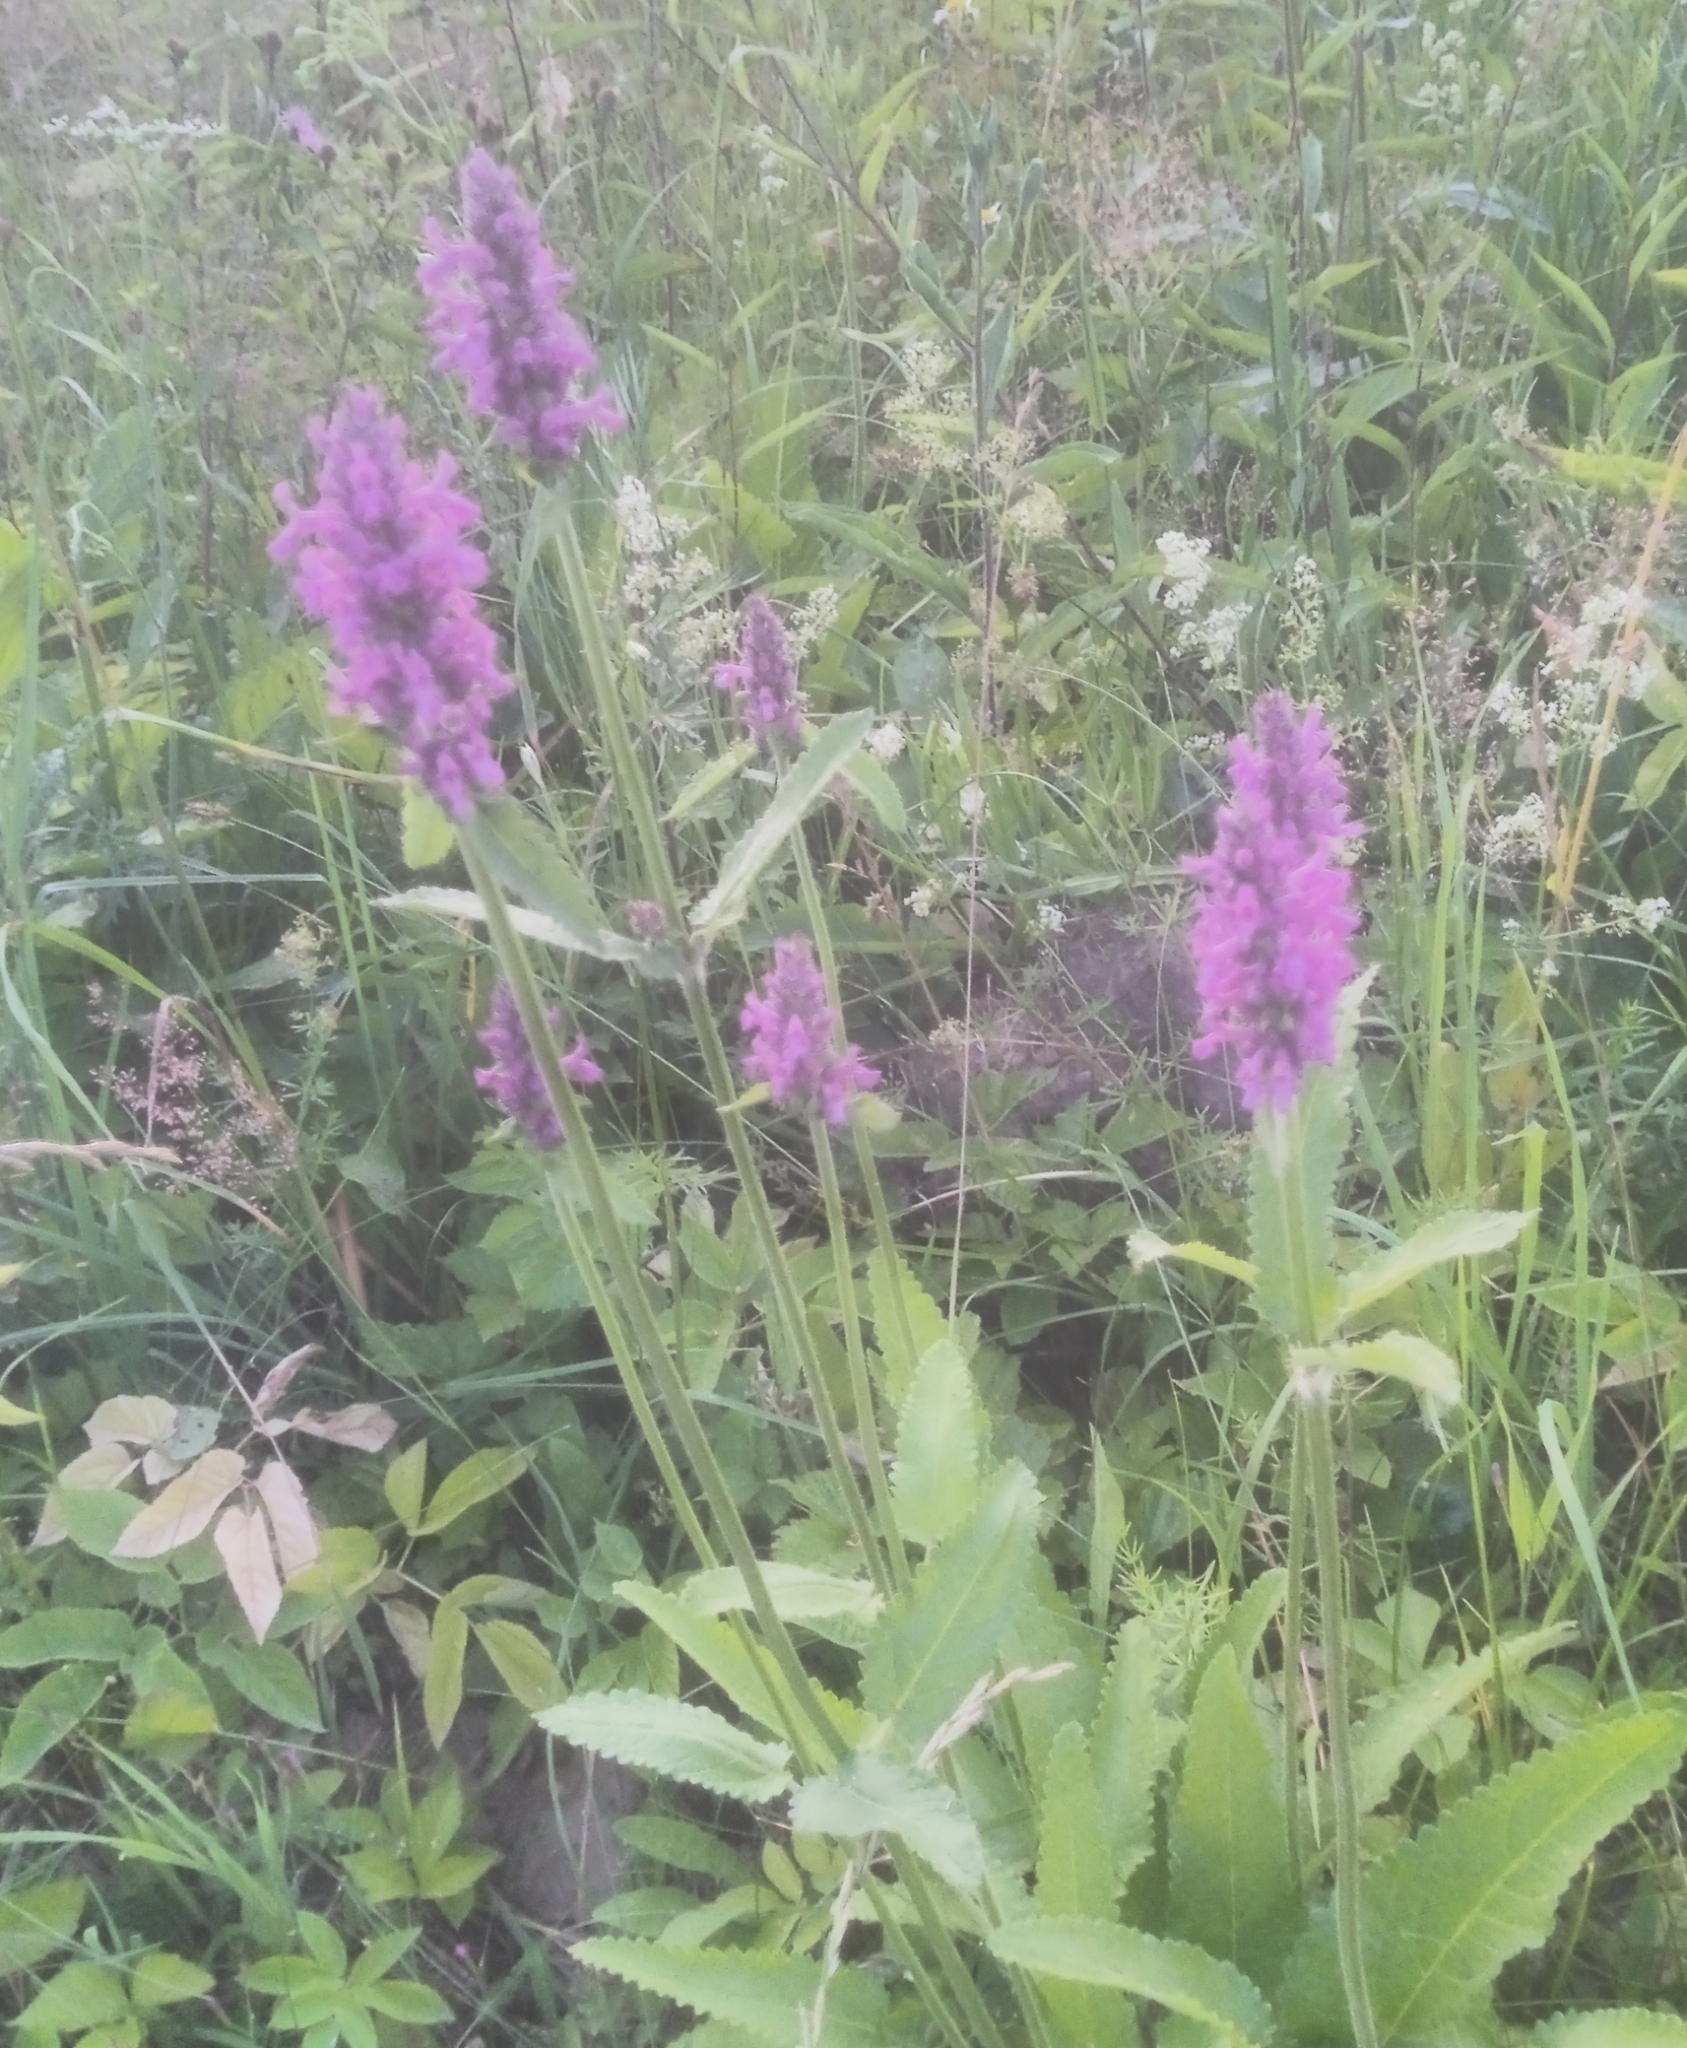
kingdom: Plantae
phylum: Tracheophyta
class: Magnoliopsida
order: Lamiales
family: Lamiaceae
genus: Betonica
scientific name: Betonica officinalis
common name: Bishop's-wort
